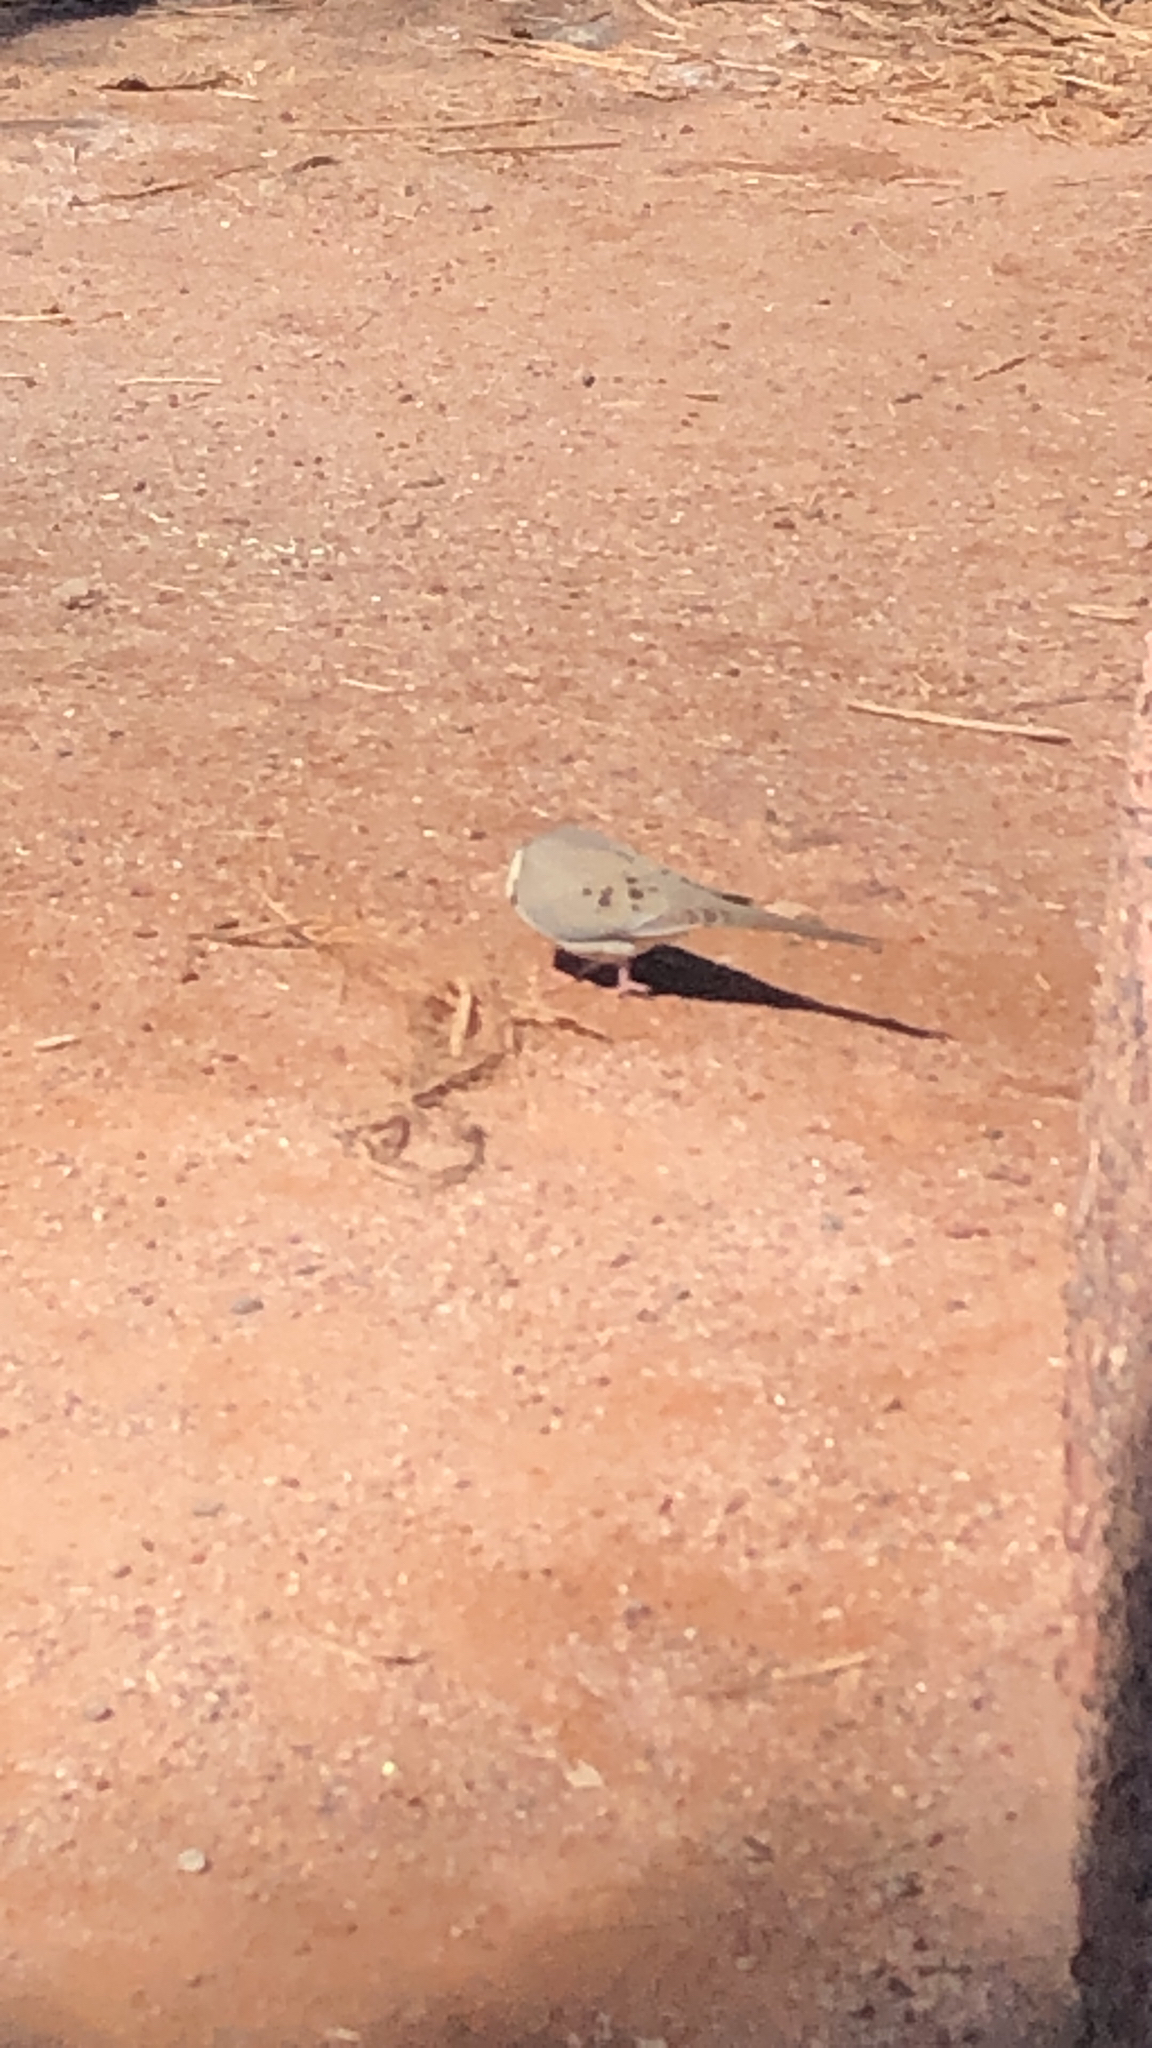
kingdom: Animalia
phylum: Chordata
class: Aves
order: Columbiformes
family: Columbidae
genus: Zenaida
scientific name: Zenaida macroura
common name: Mourning dove
